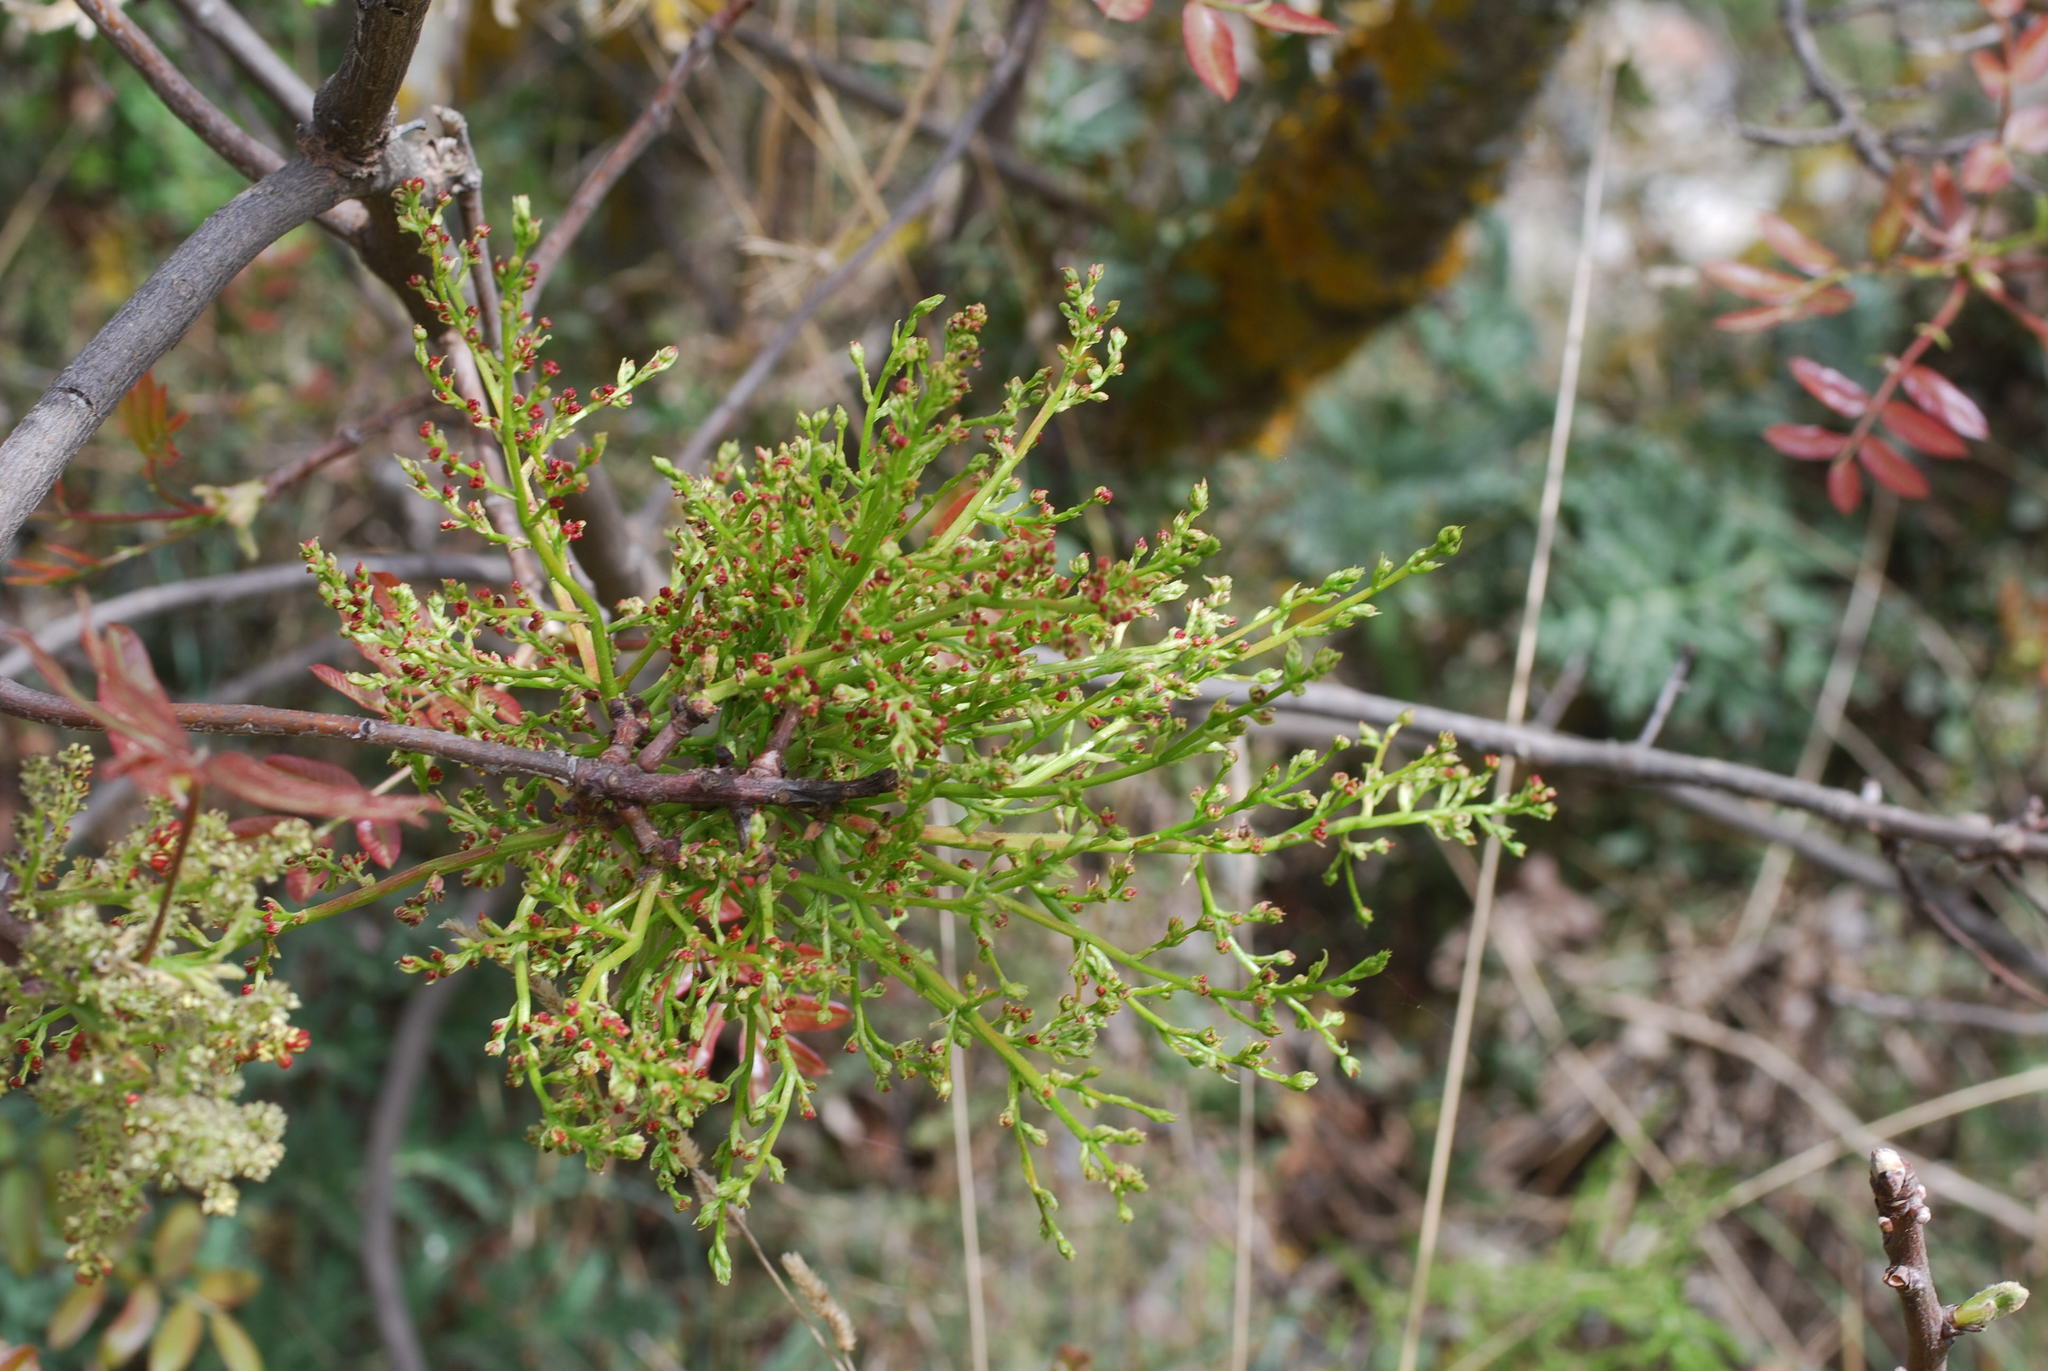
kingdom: Plantae
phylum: Tracheophyta
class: Magnoliopsida
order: Sapindales
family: Anacardiaceae
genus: Pistacia
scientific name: Pistacia terebinthus
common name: Terebinth
